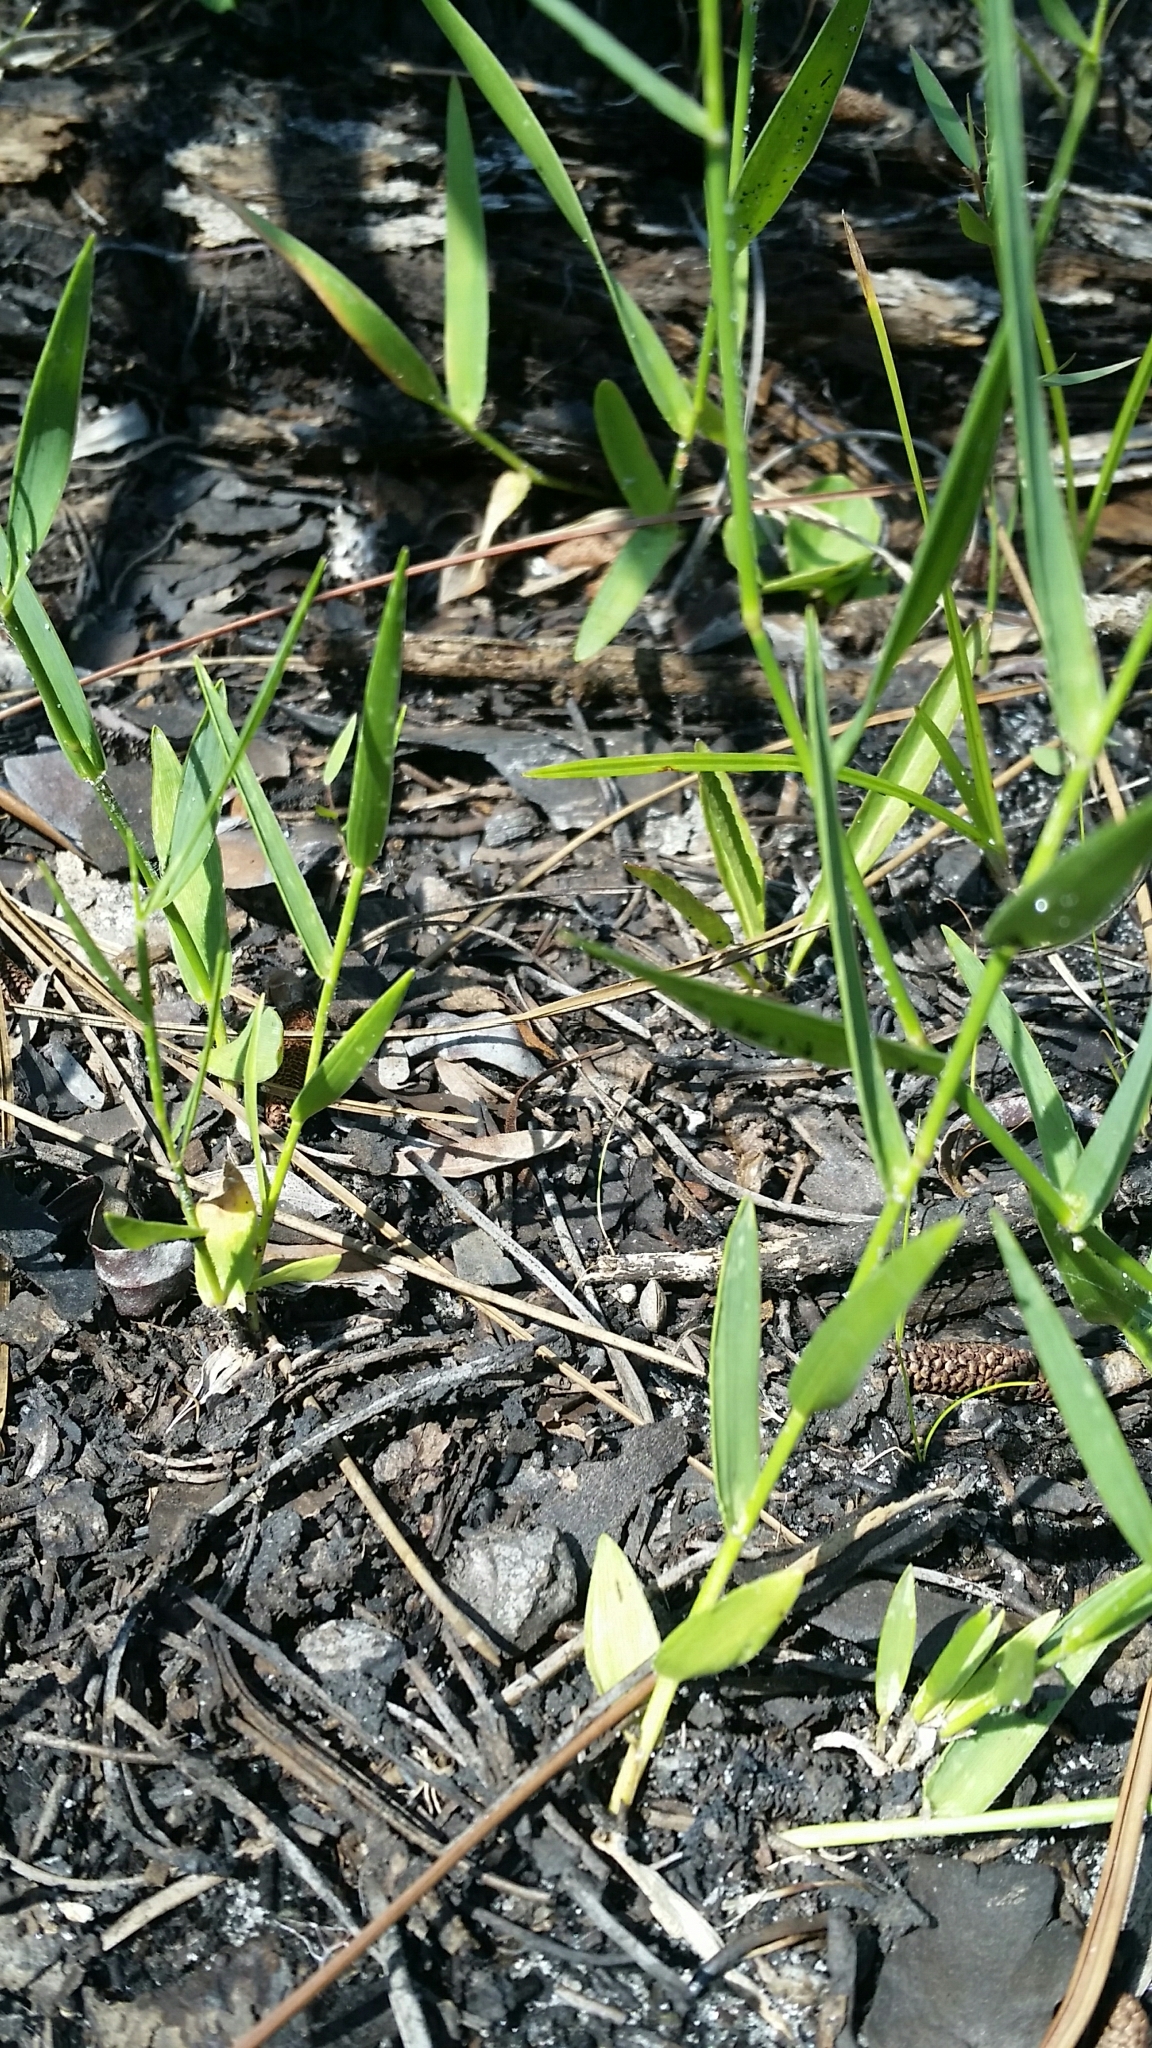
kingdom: Plantae
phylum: Tracheophyta
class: Liliopsida
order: Poales
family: Poaceae
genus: Amphicarpum
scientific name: Amphicarpum muehlenbergianum
